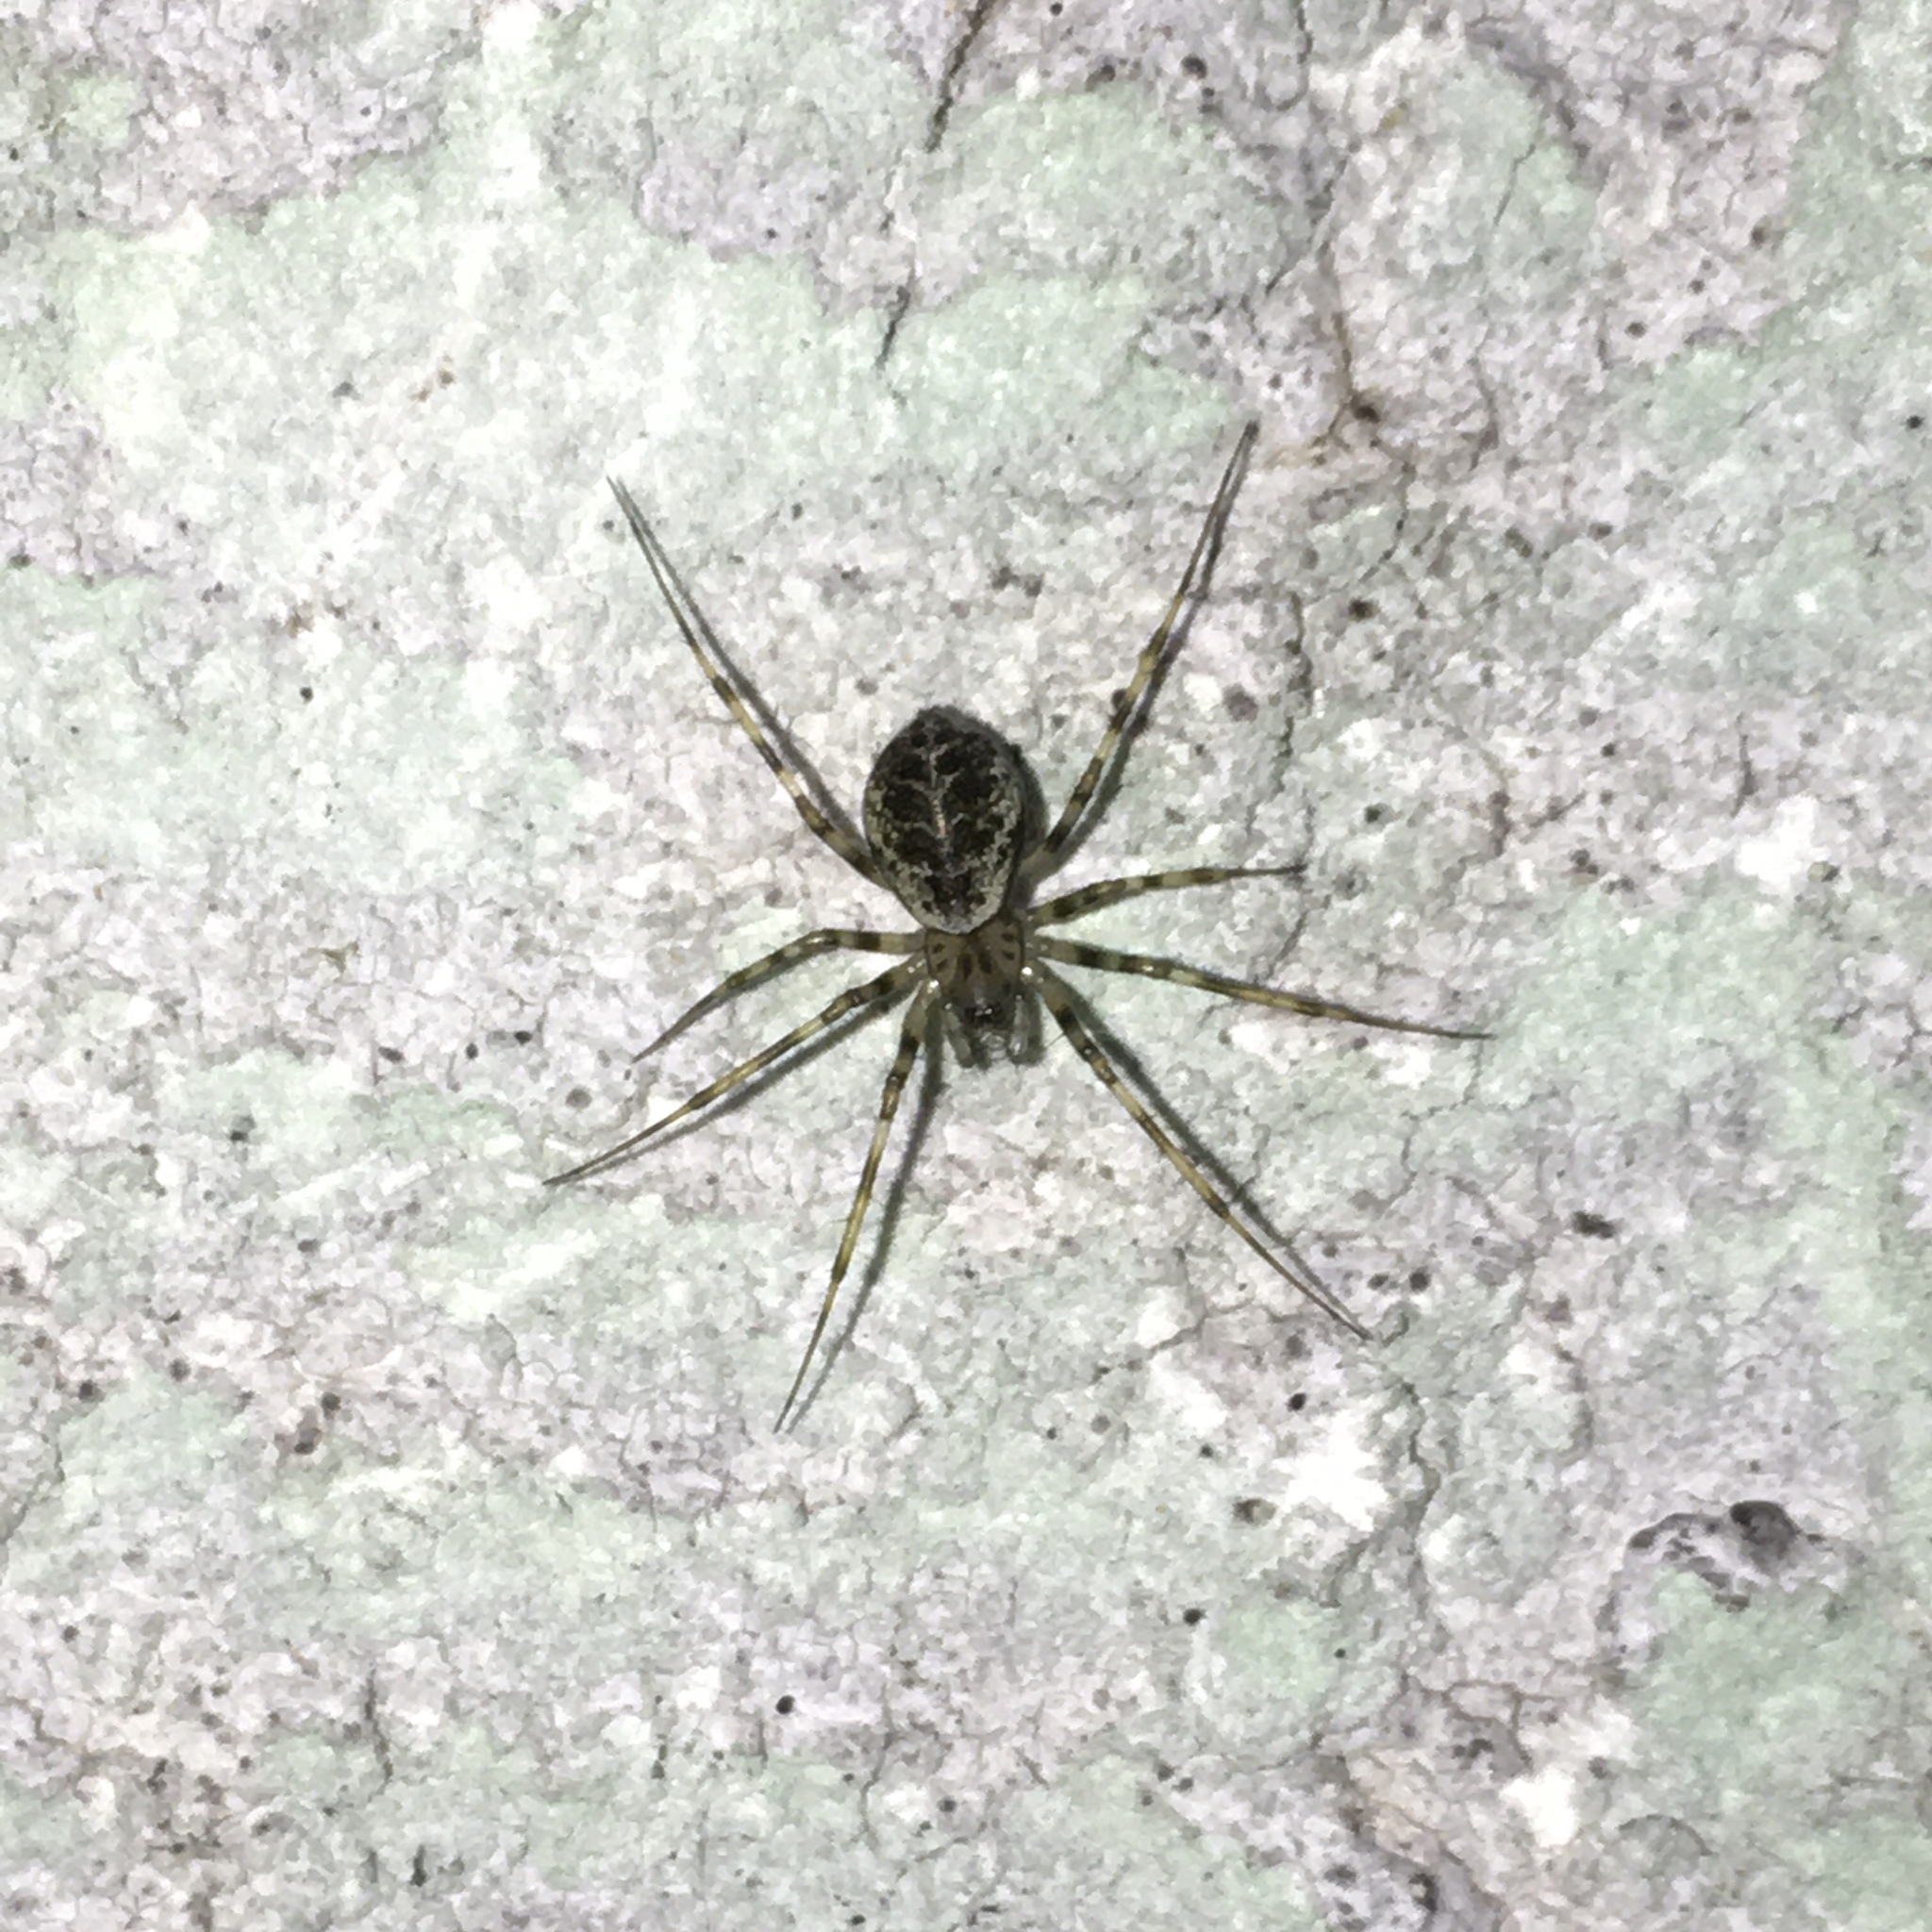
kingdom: Animalia
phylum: Arthropoda
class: Arachnida
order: Araneae
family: Linyphiidae
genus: Drapetisca
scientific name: Drapetisca socialis
